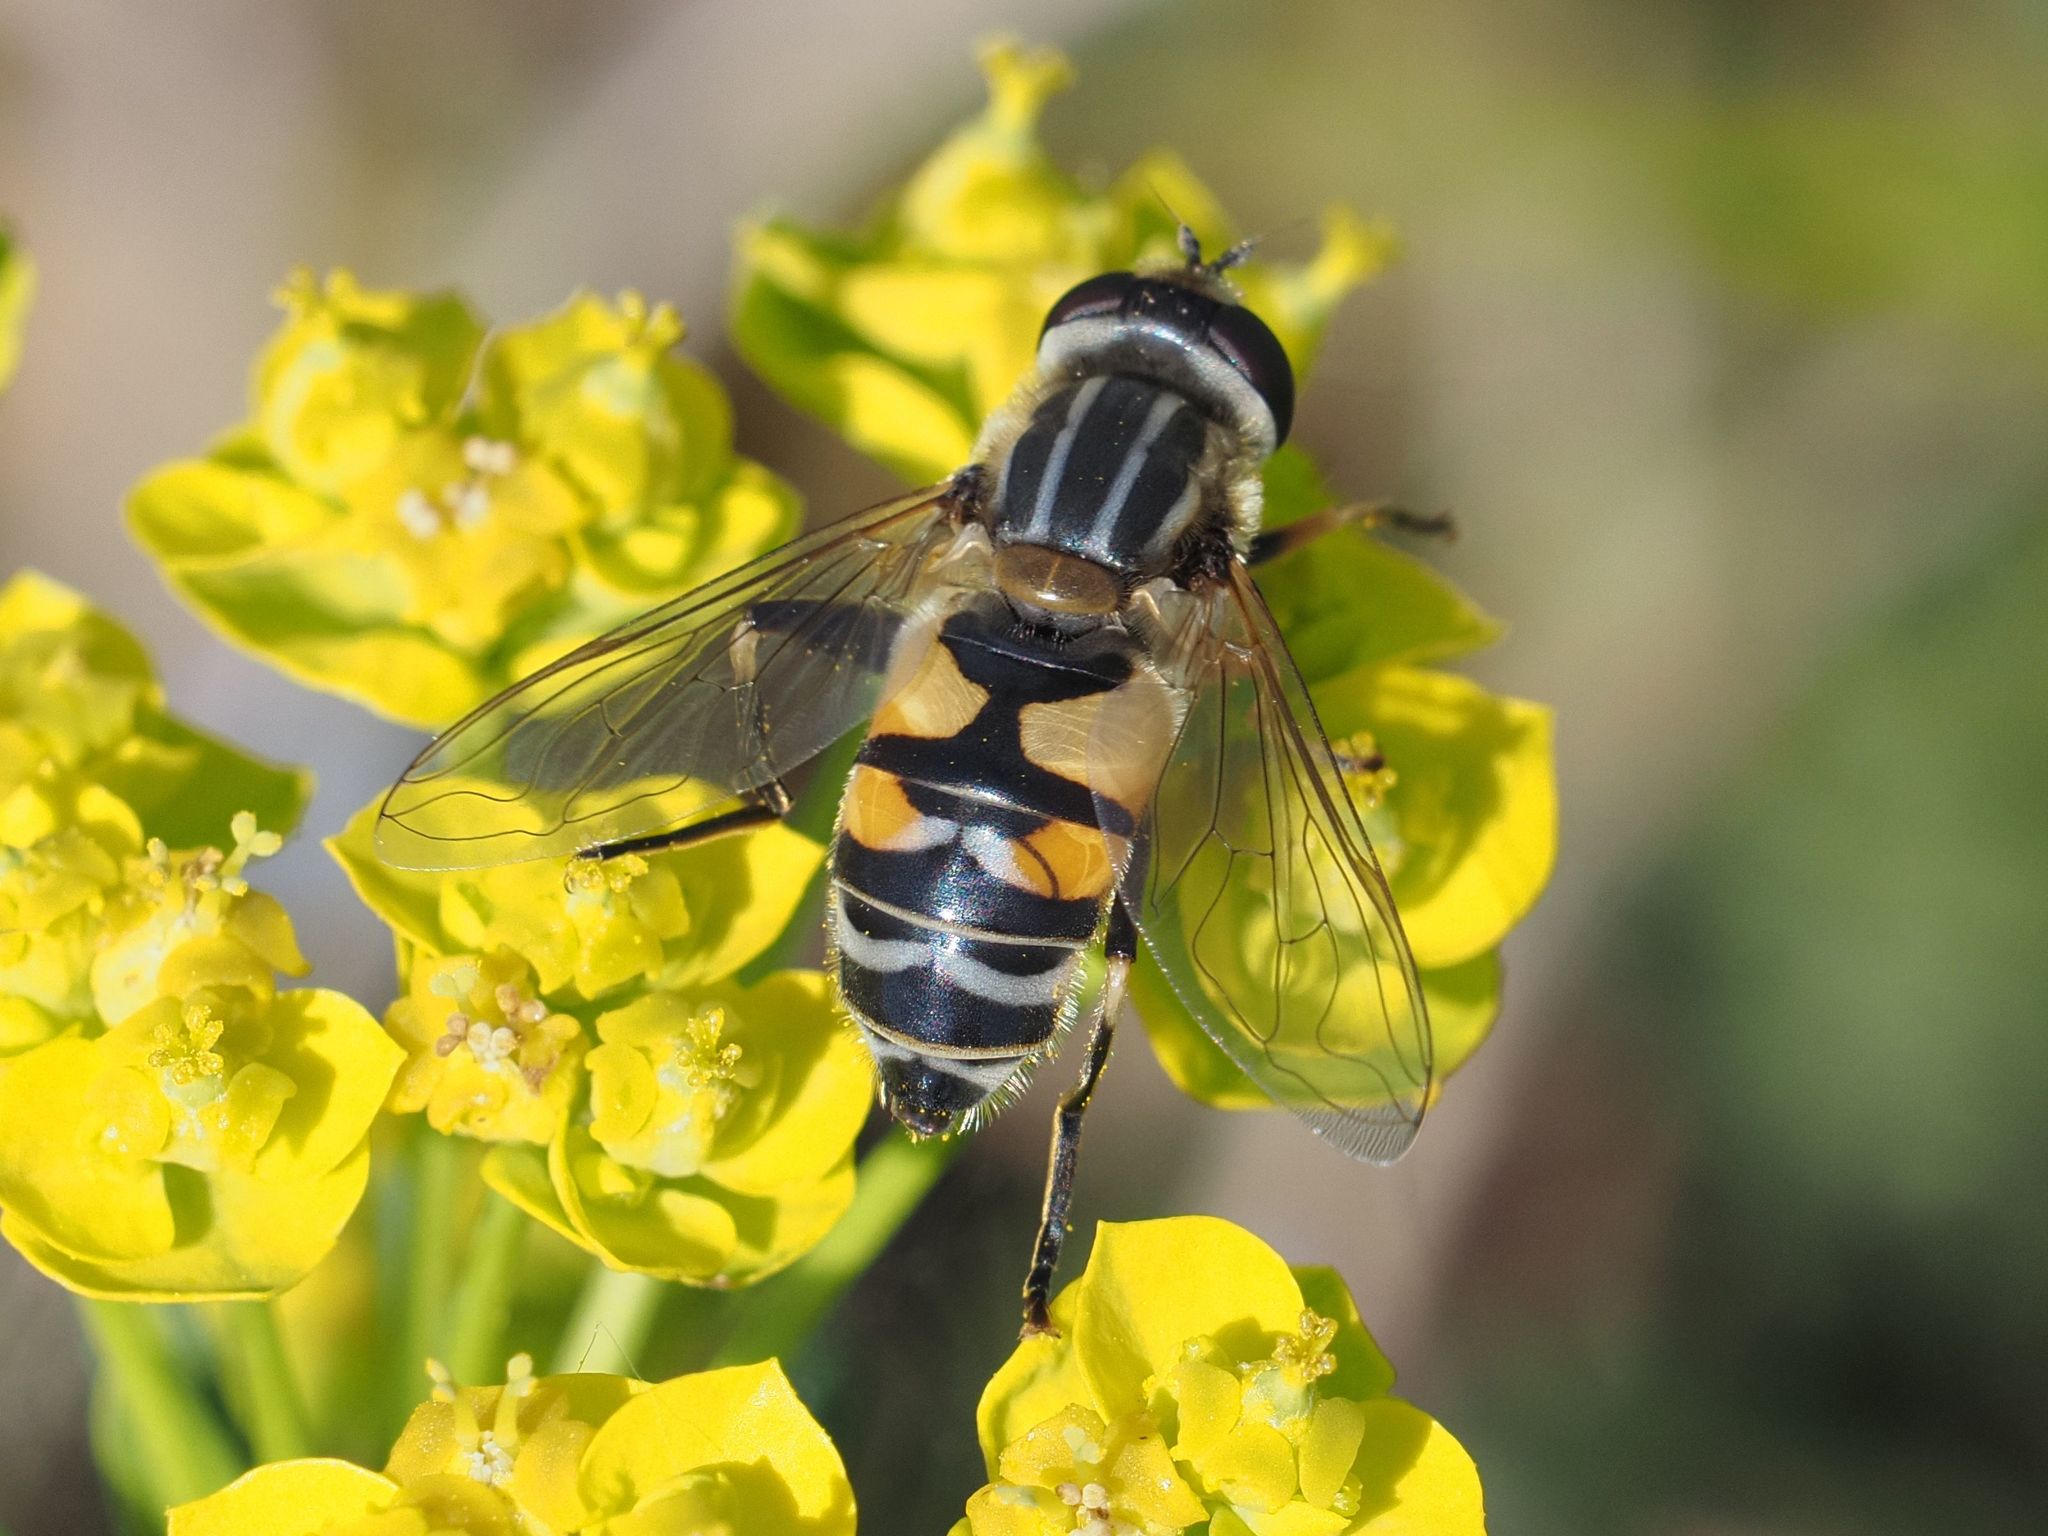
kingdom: Animalia
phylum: Arthropoda
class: Insecta
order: Diptera
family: Syrphidae
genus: Helophilus
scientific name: Helophilus trivittatus
